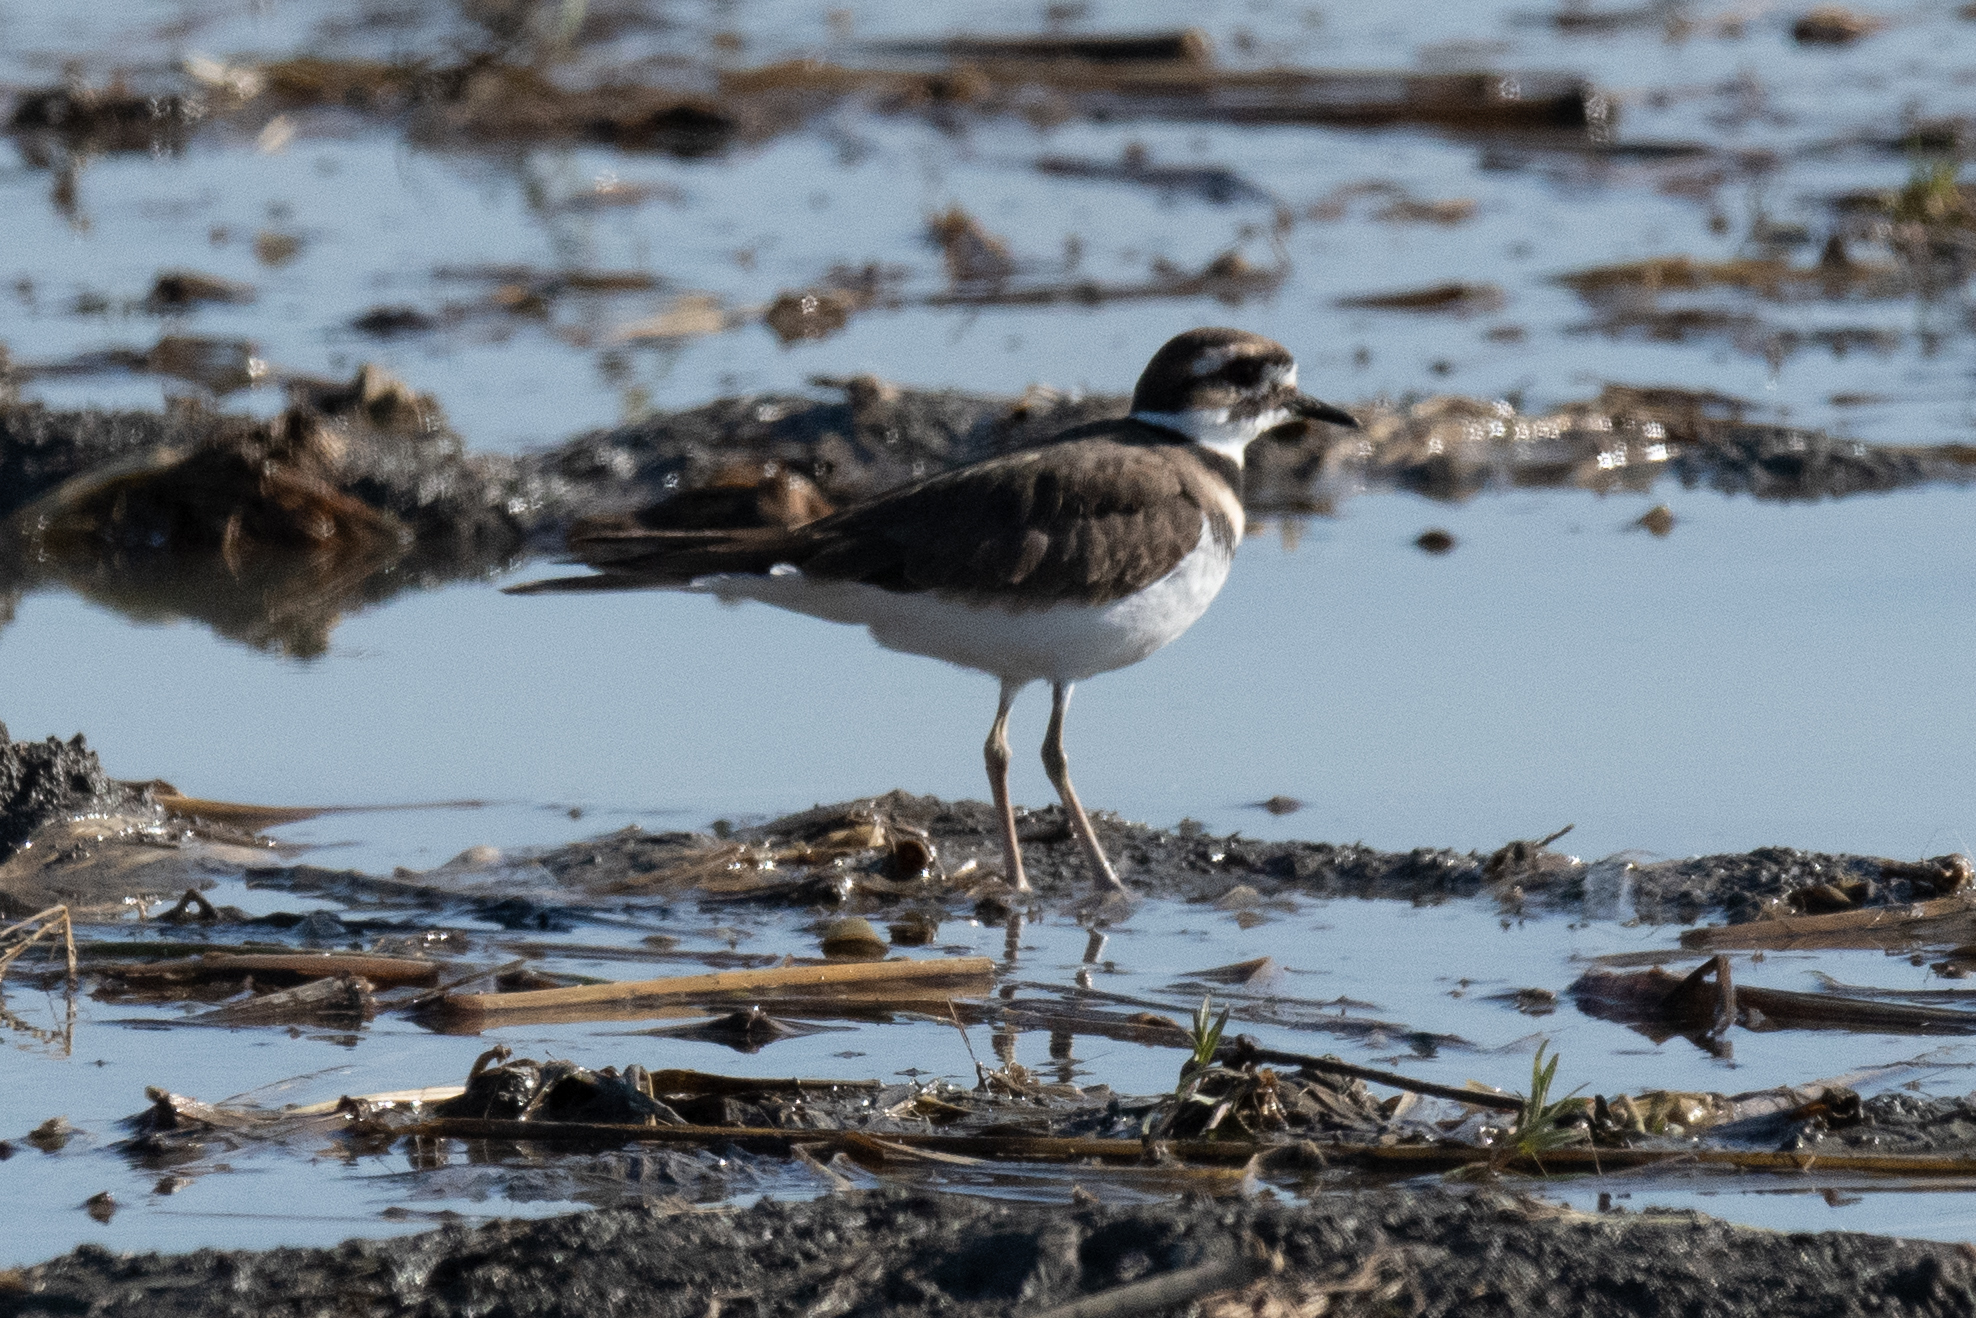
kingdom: Animalia
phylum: Chordata
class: Aves
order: Charadriiformes
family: Charadriidae
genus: Charadrius
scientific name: Charadrius vociferus
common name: Killdeer
